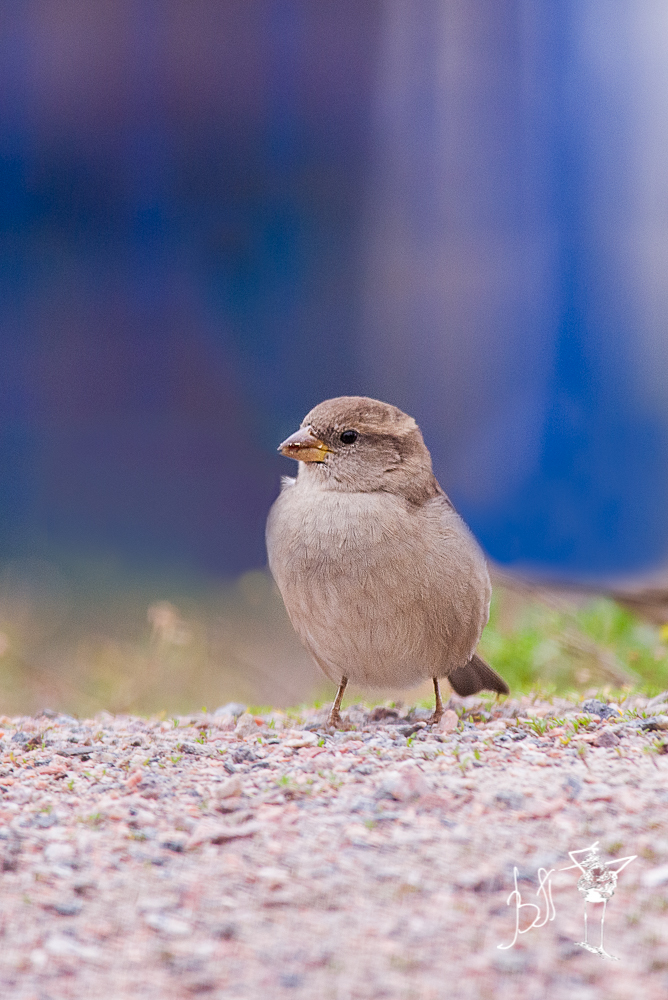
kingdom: Animalia
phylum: Chordata
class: Aves
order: Passeriformes
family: Passeridae
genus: Passer
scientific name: Passer domesticus
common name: House sparrow
